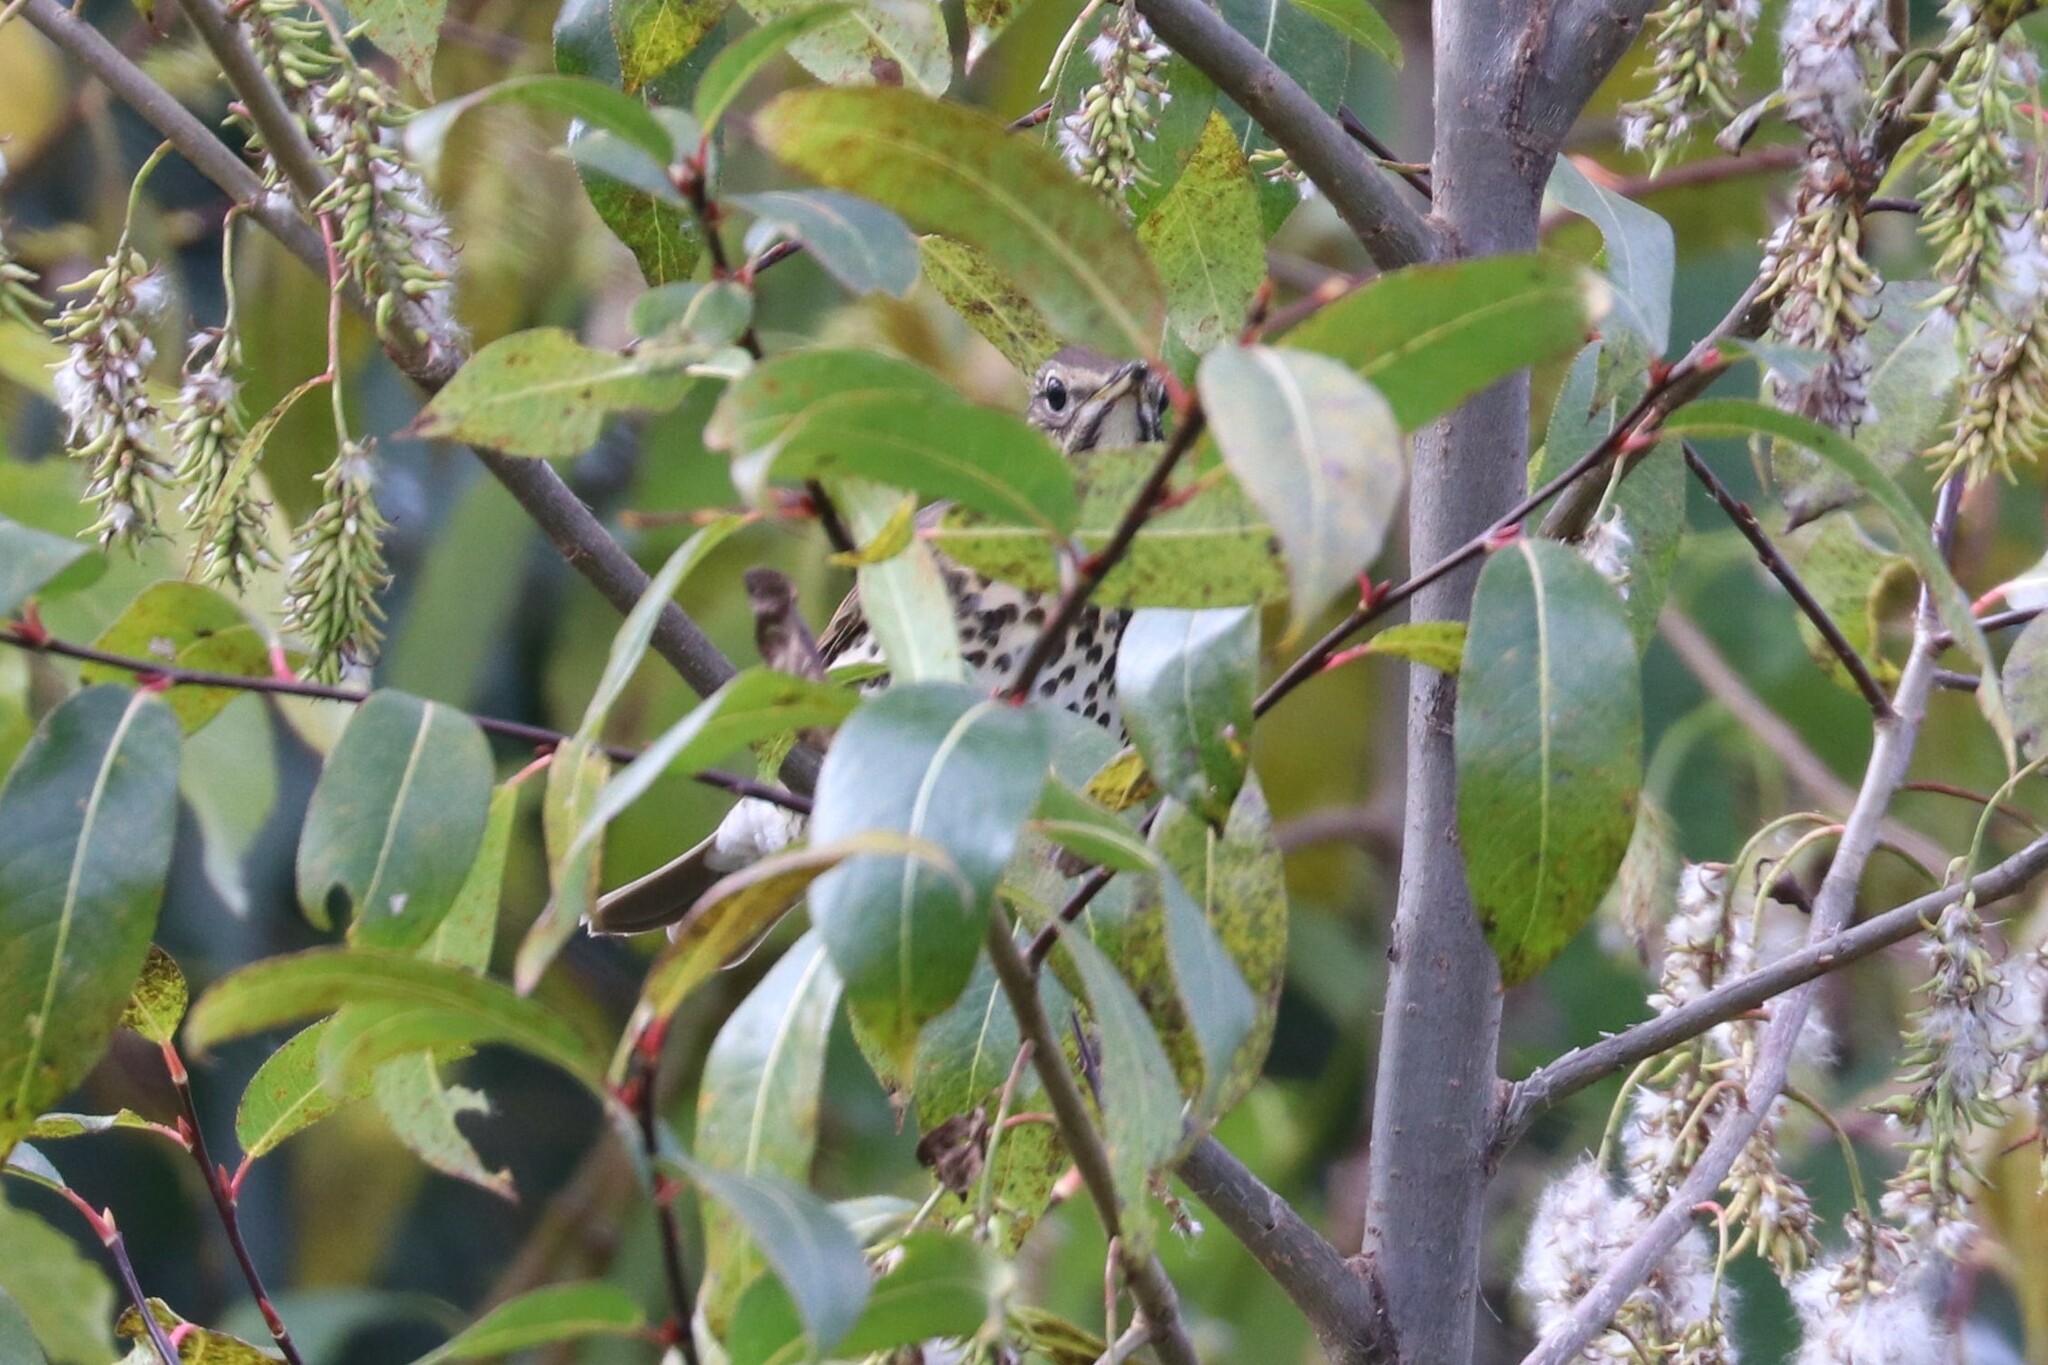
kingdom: Animalia
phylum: Chordata
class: Aves
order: Passeriformes
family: Turdidae
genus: Turdus
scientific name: Turdus philomelos
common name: Song thrush
